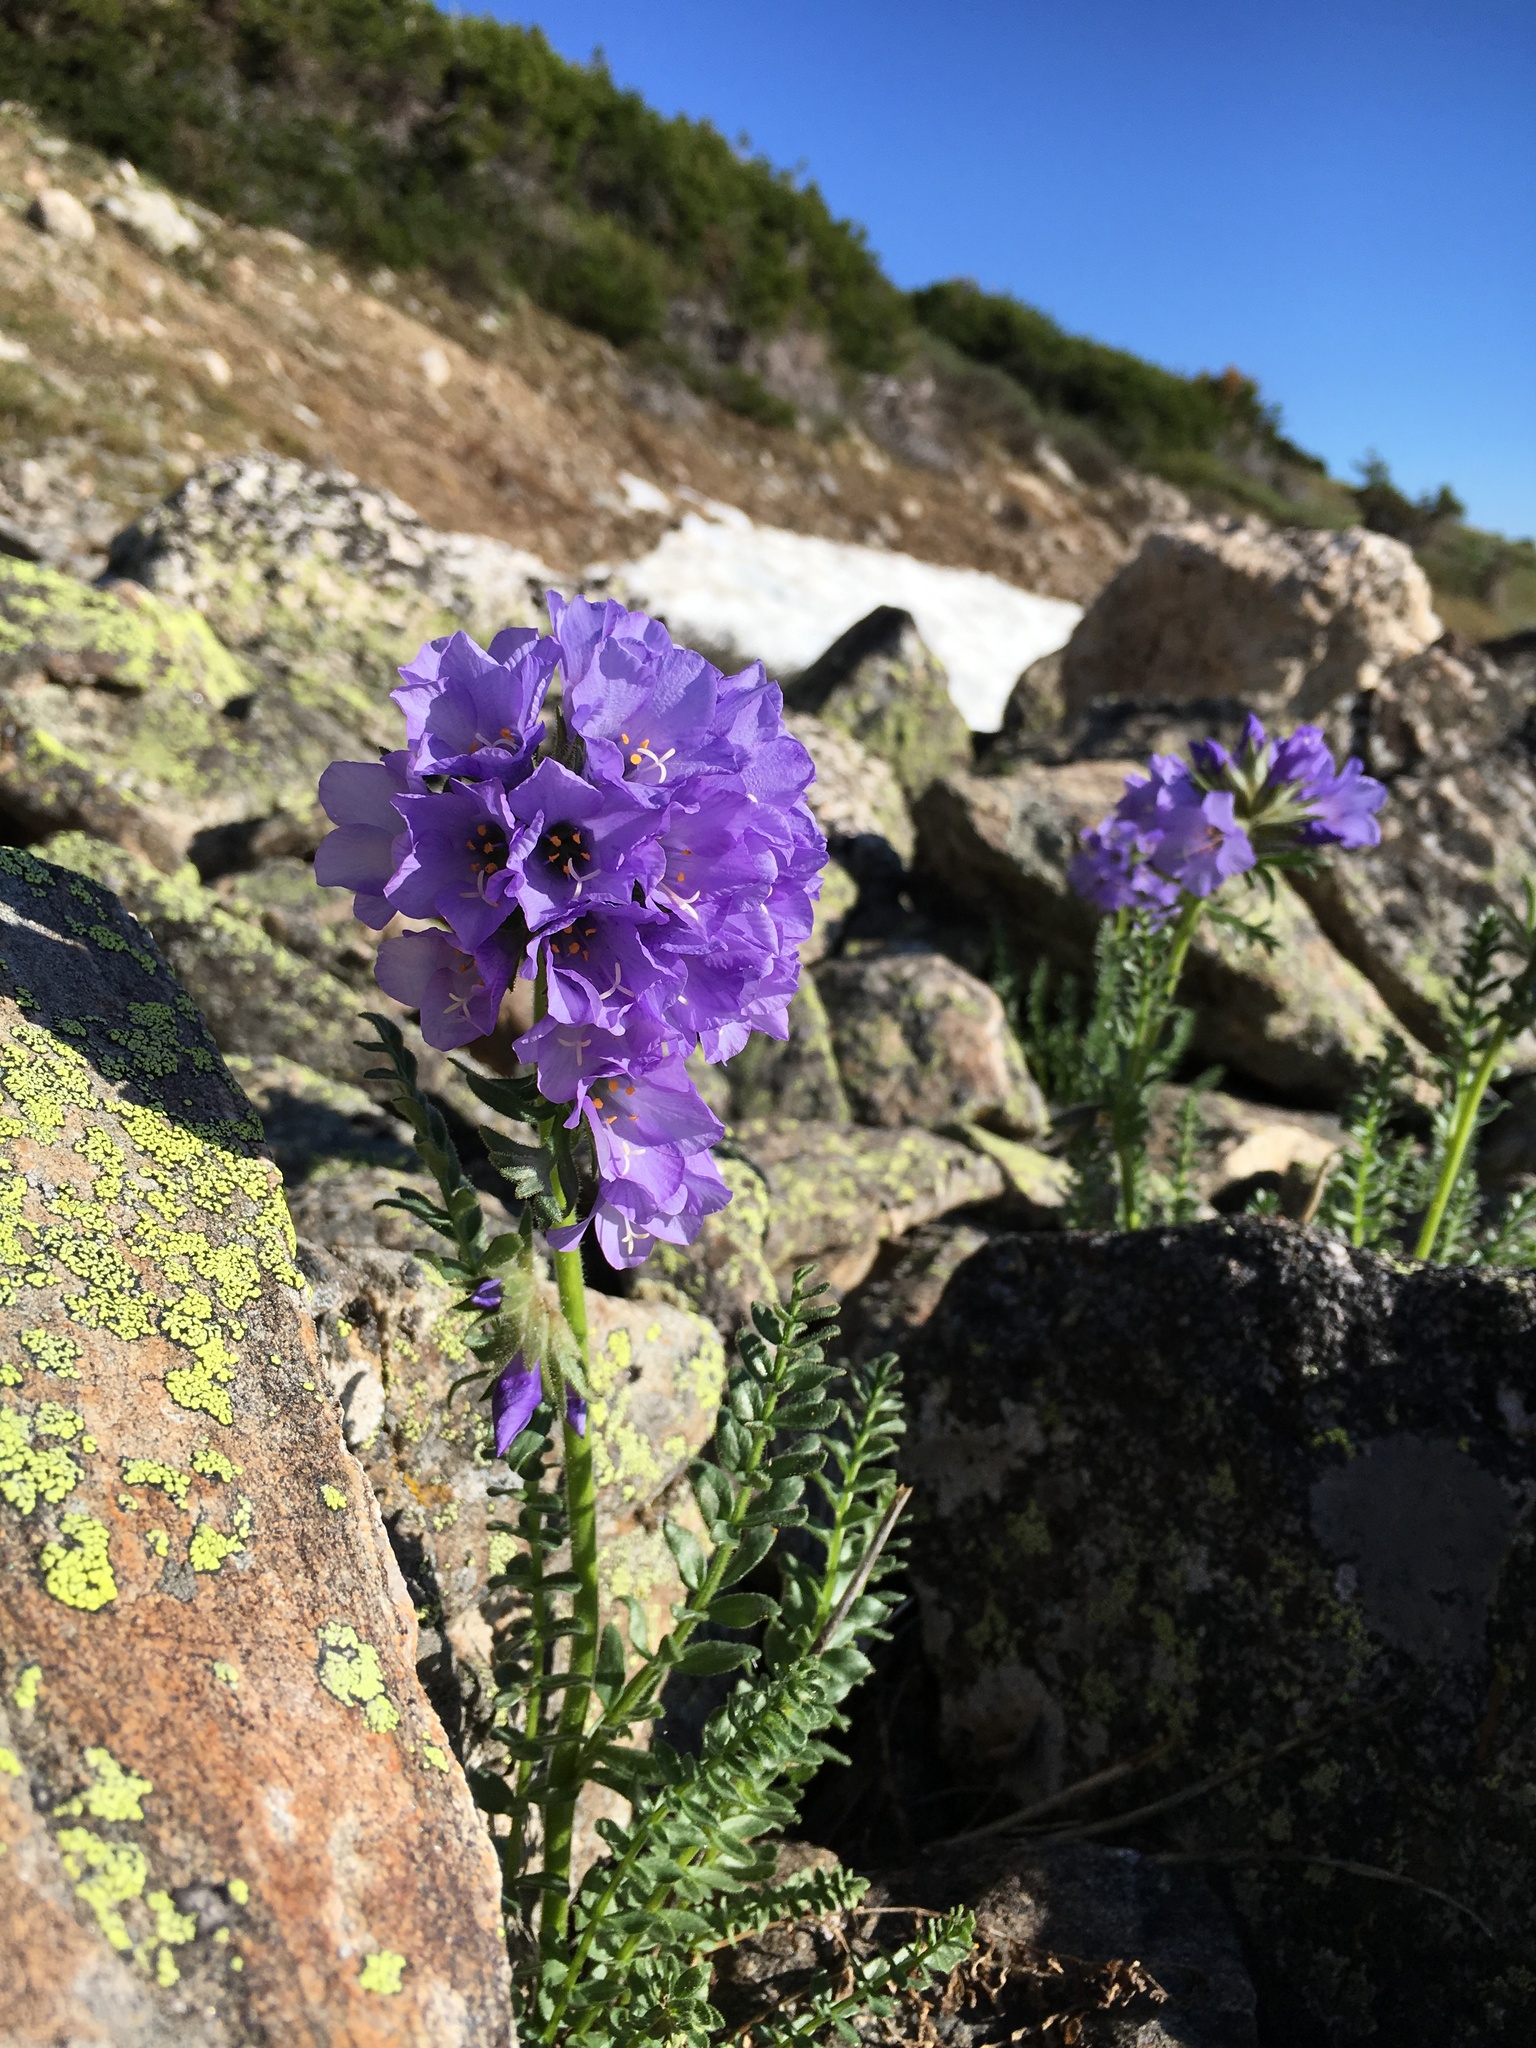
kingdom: Plantae
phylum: Tracheophyta
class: Magnoliopsida
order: Ericales
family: Polemoniaceae
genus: Polemonium
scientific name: Polemonium viscosum
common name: Skunk jacob's-ladder
